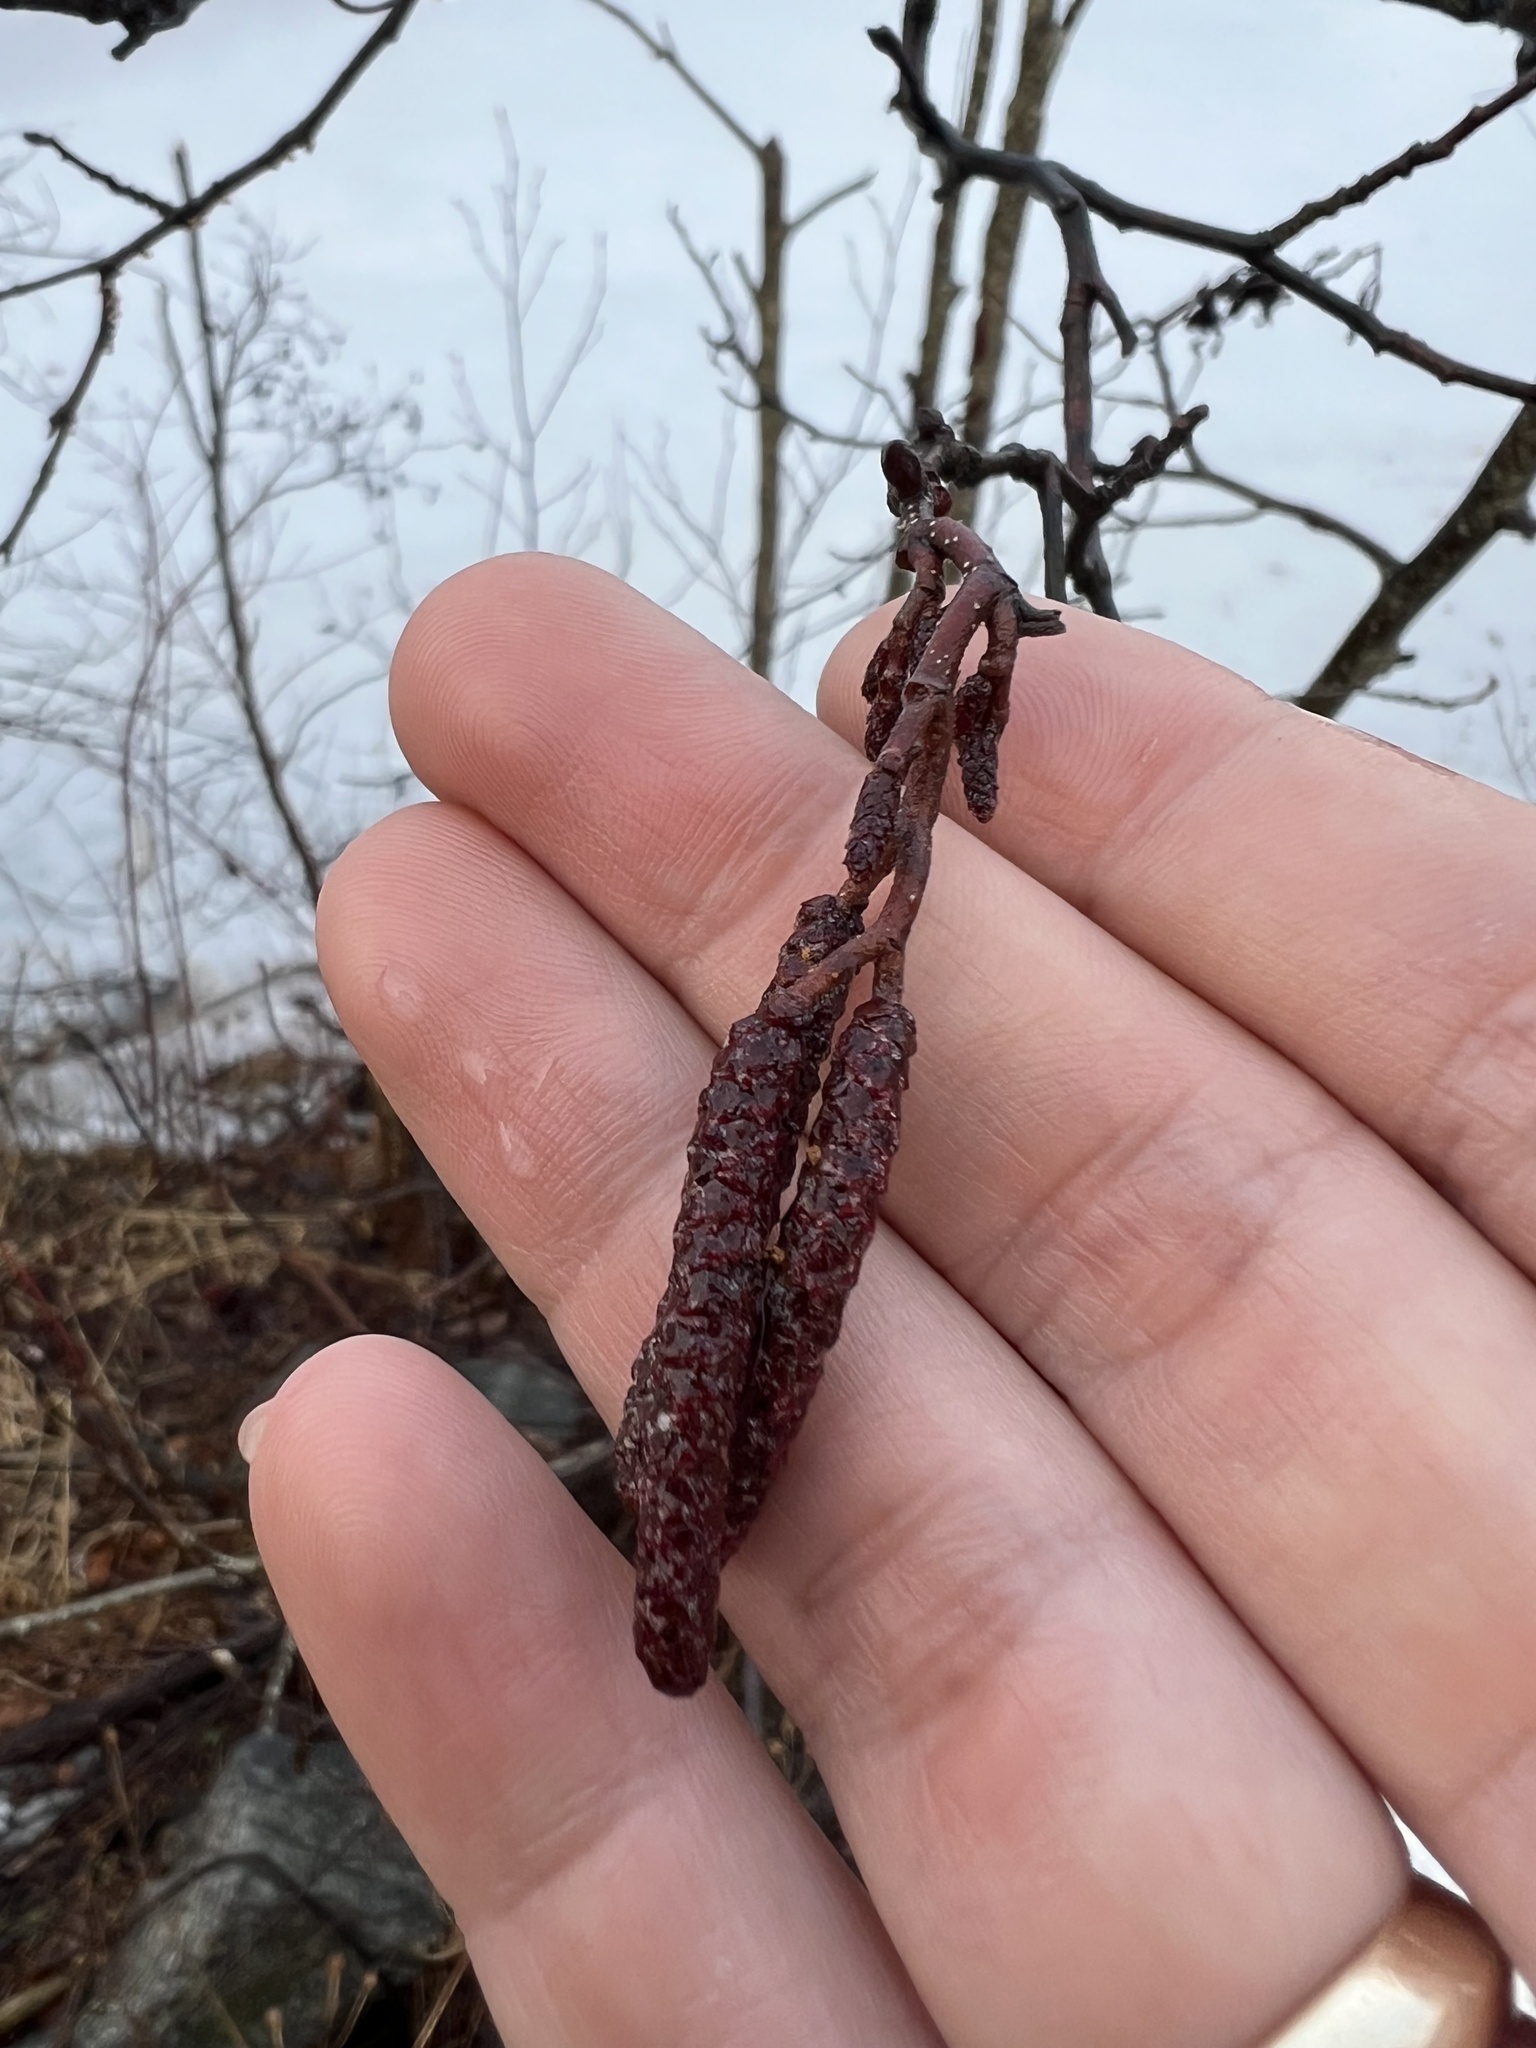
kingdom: Plantae
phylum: Tracheophyta
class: Magnoliopsida
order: Fagales
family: Betulaceae
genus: Alnus
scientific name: Alnus incana
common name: Grey alder
